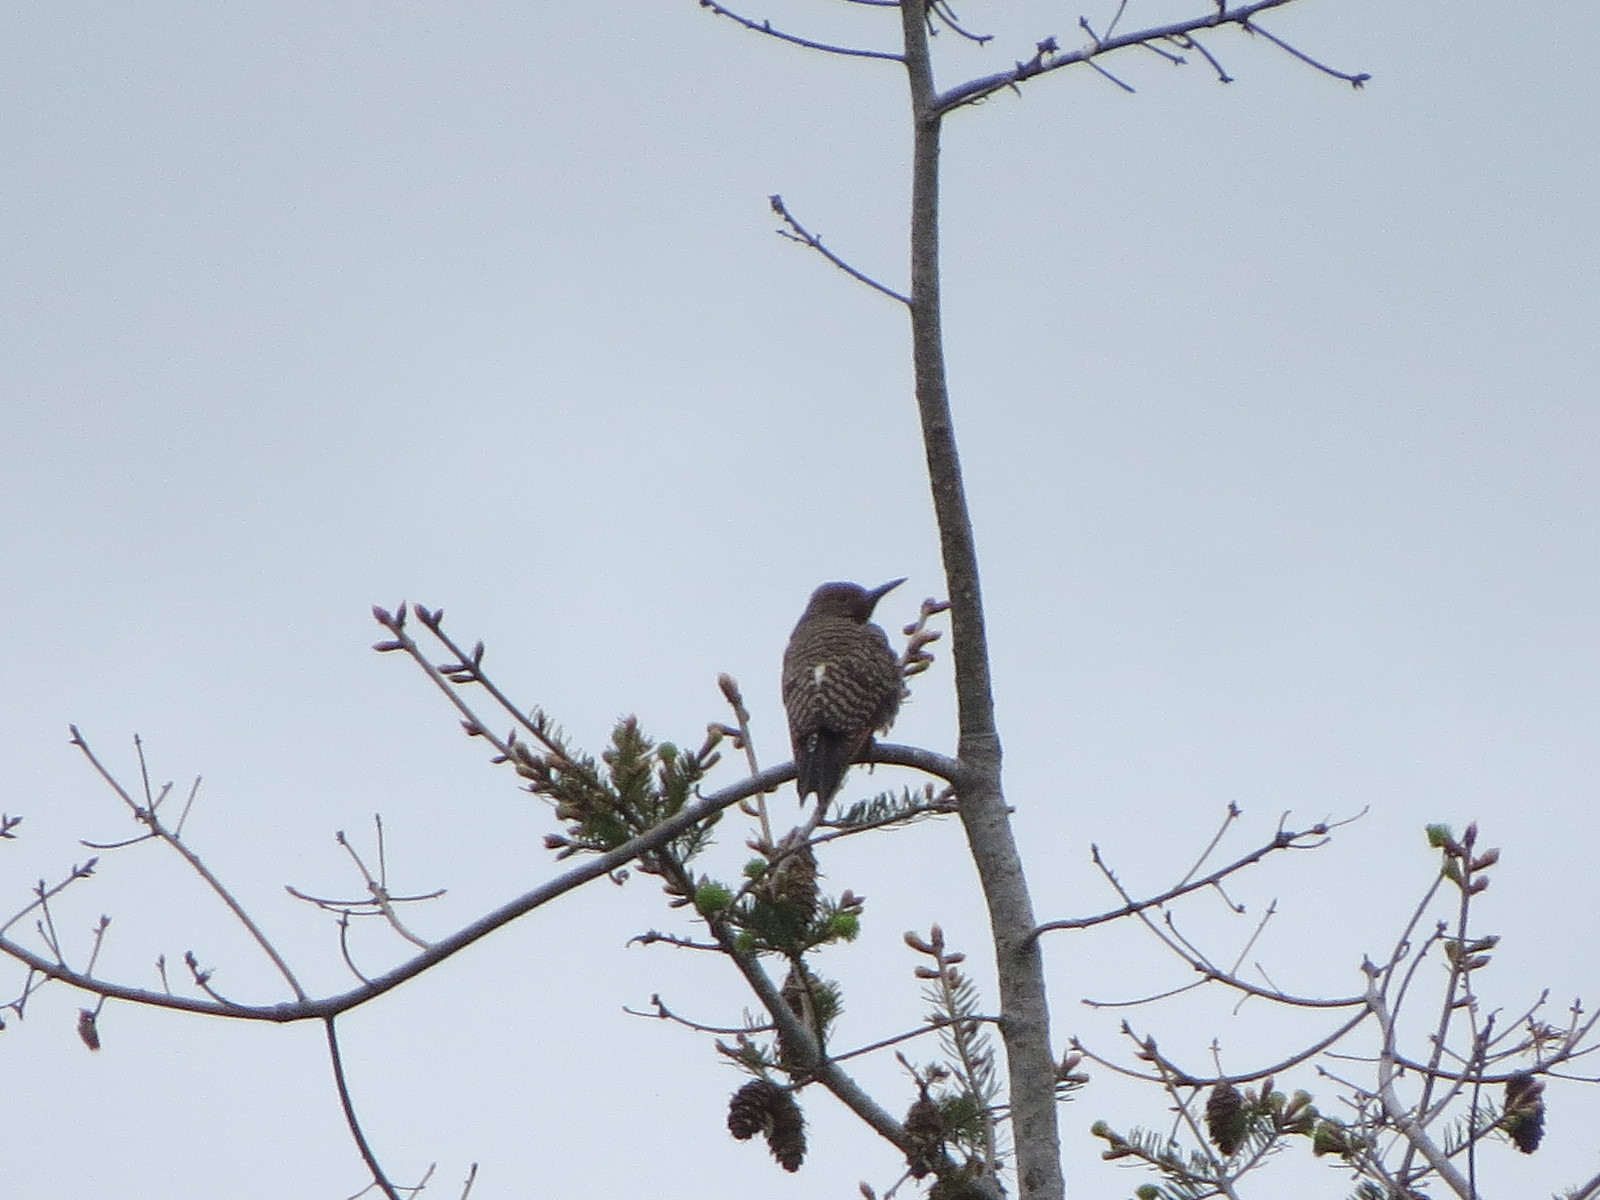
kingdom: Animalia
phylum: Chordata
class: Aves
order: Piciformes
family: Picidae
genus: Colaptes
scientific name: Colaptes auratus
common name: Northern flicker
